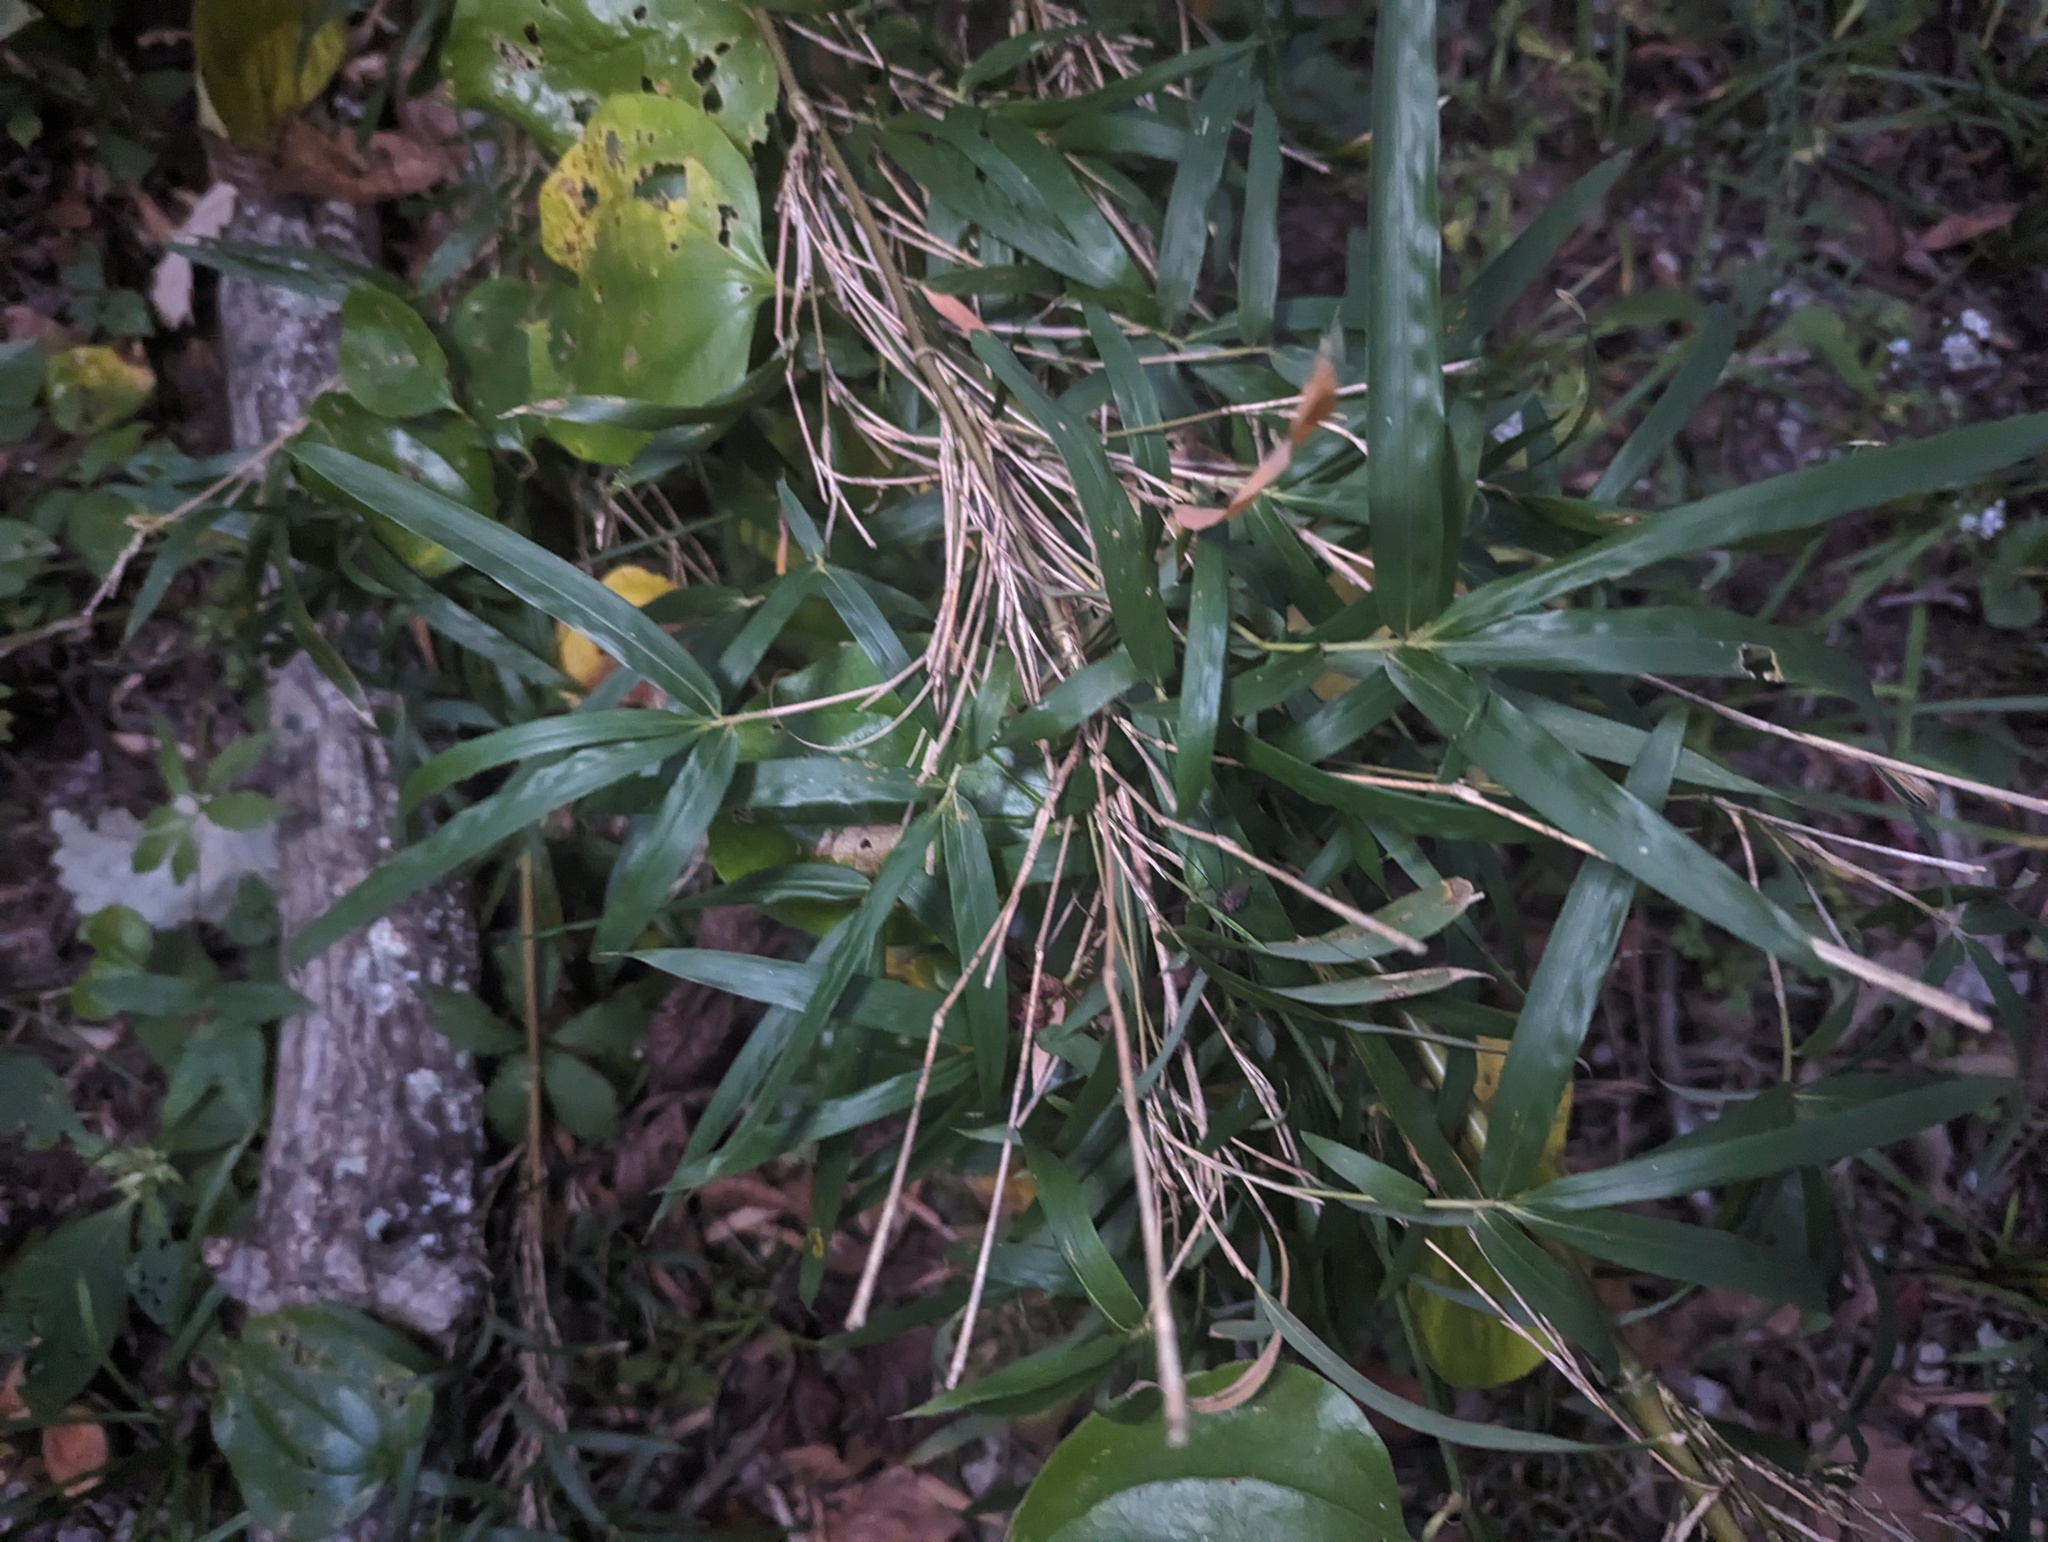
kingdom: Plantae
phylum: Tracheophyta
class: Liliopsida
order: Poales
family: Poaceae
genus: Arundinaria
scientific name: Arundinaria gigantea
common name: Giant cane
